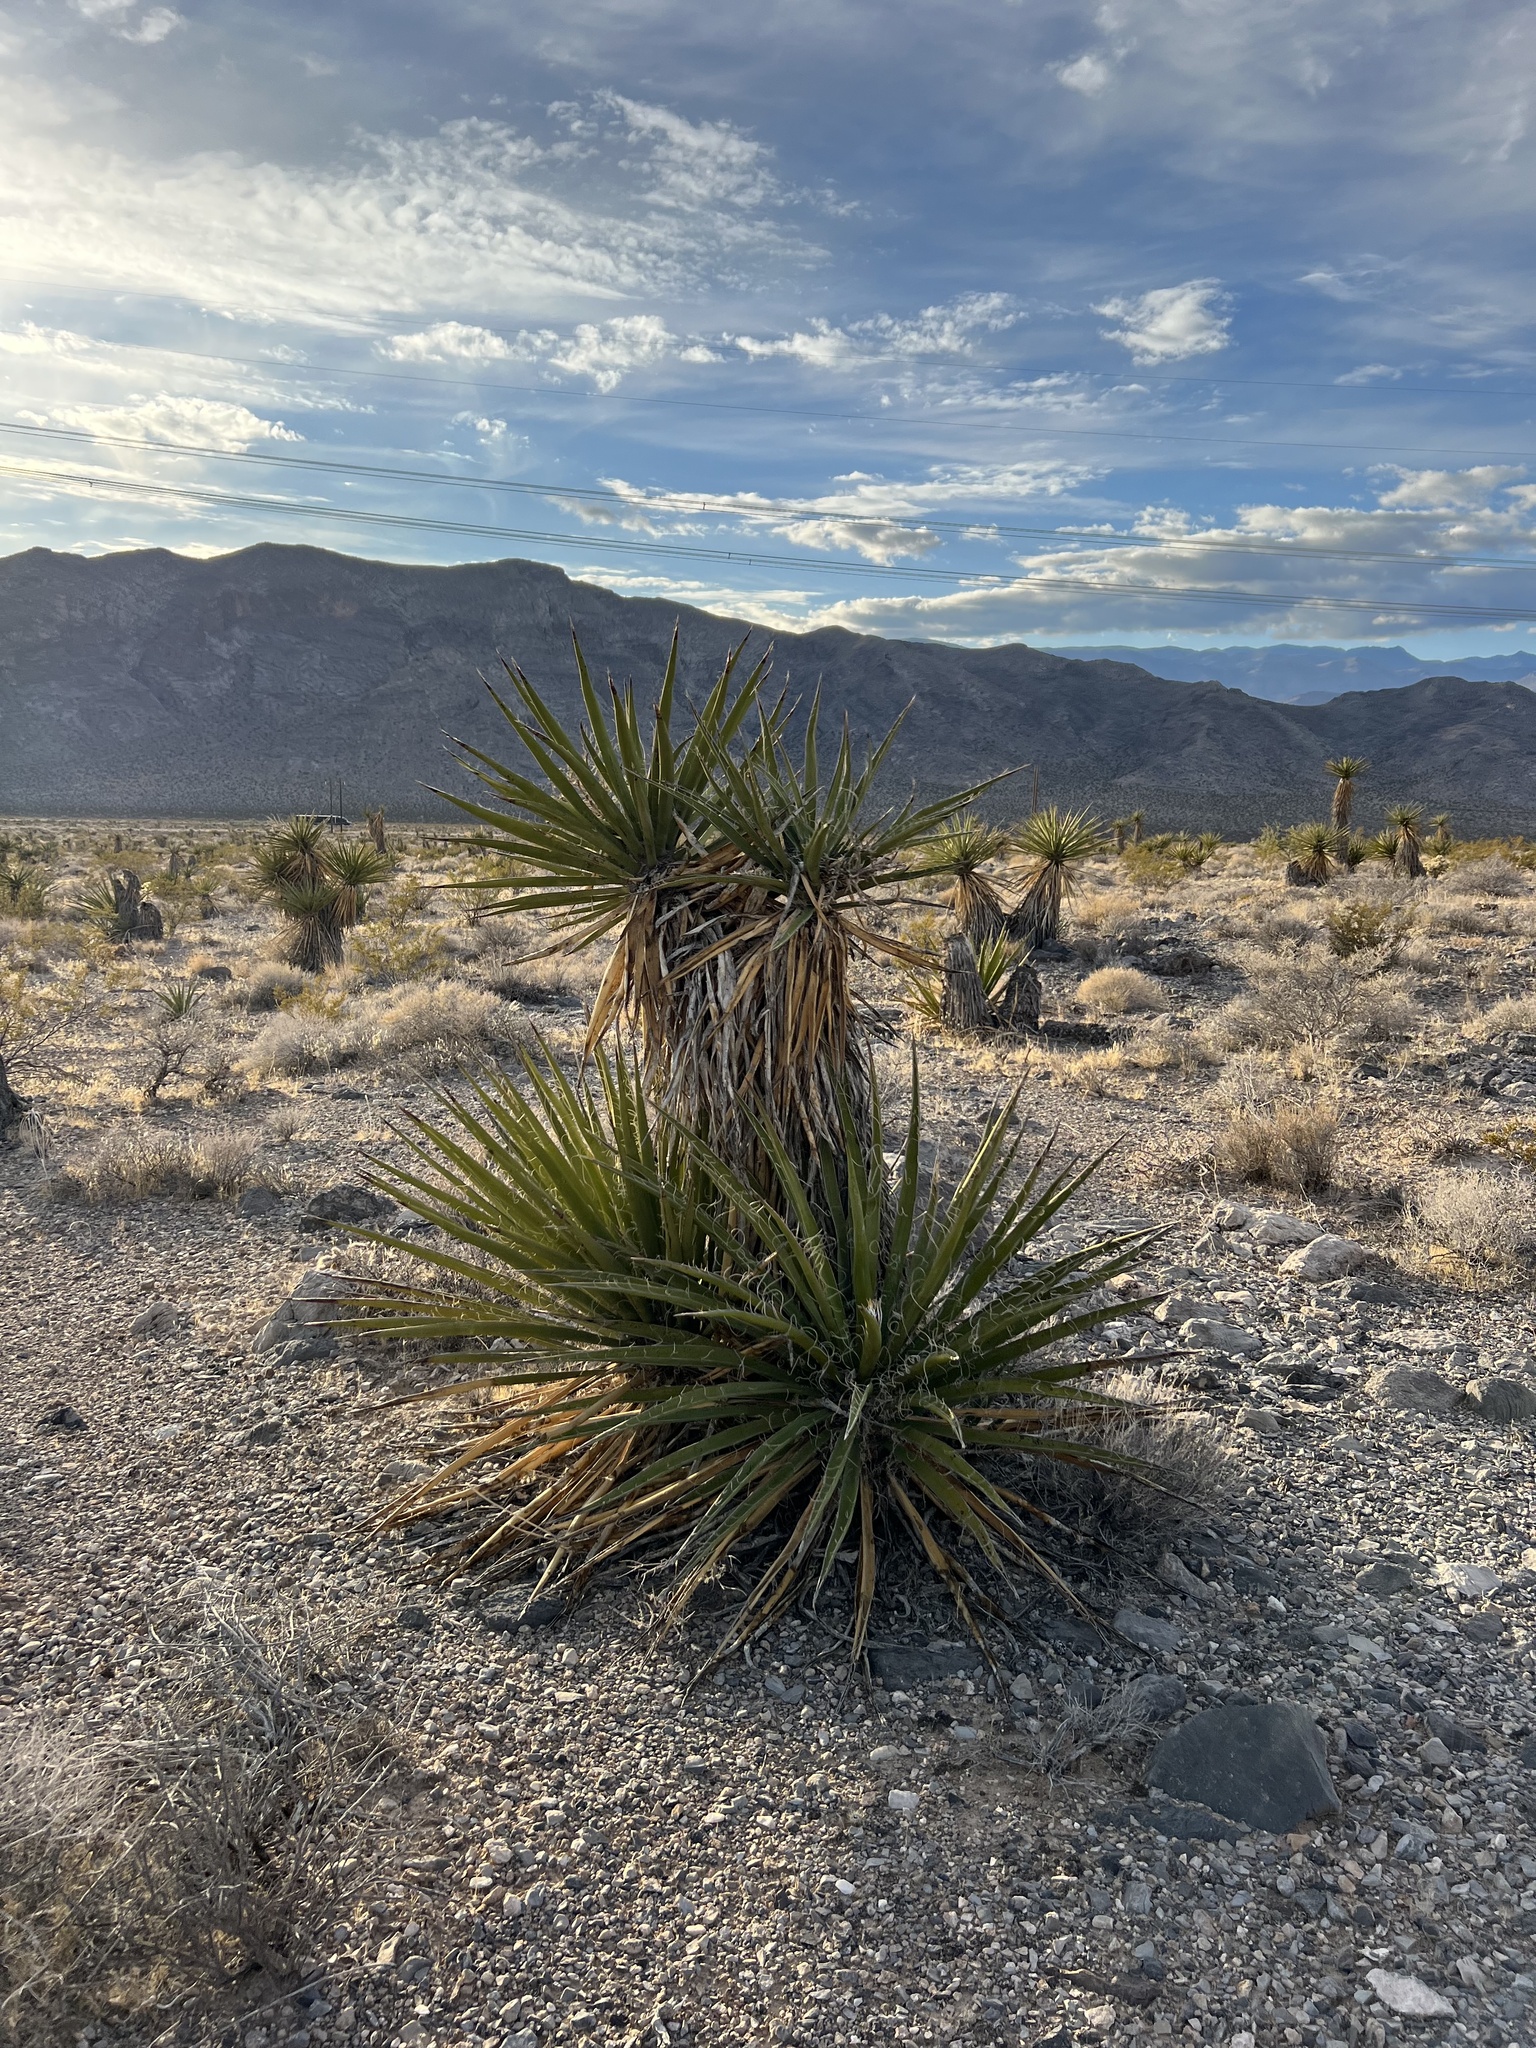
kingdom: Plantae
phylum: Tracheophyta
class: Liliopsida
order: Asparagales
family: Asparagaceae
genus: Yucca
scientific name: Yucca schidigera
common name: Mojave yucca
